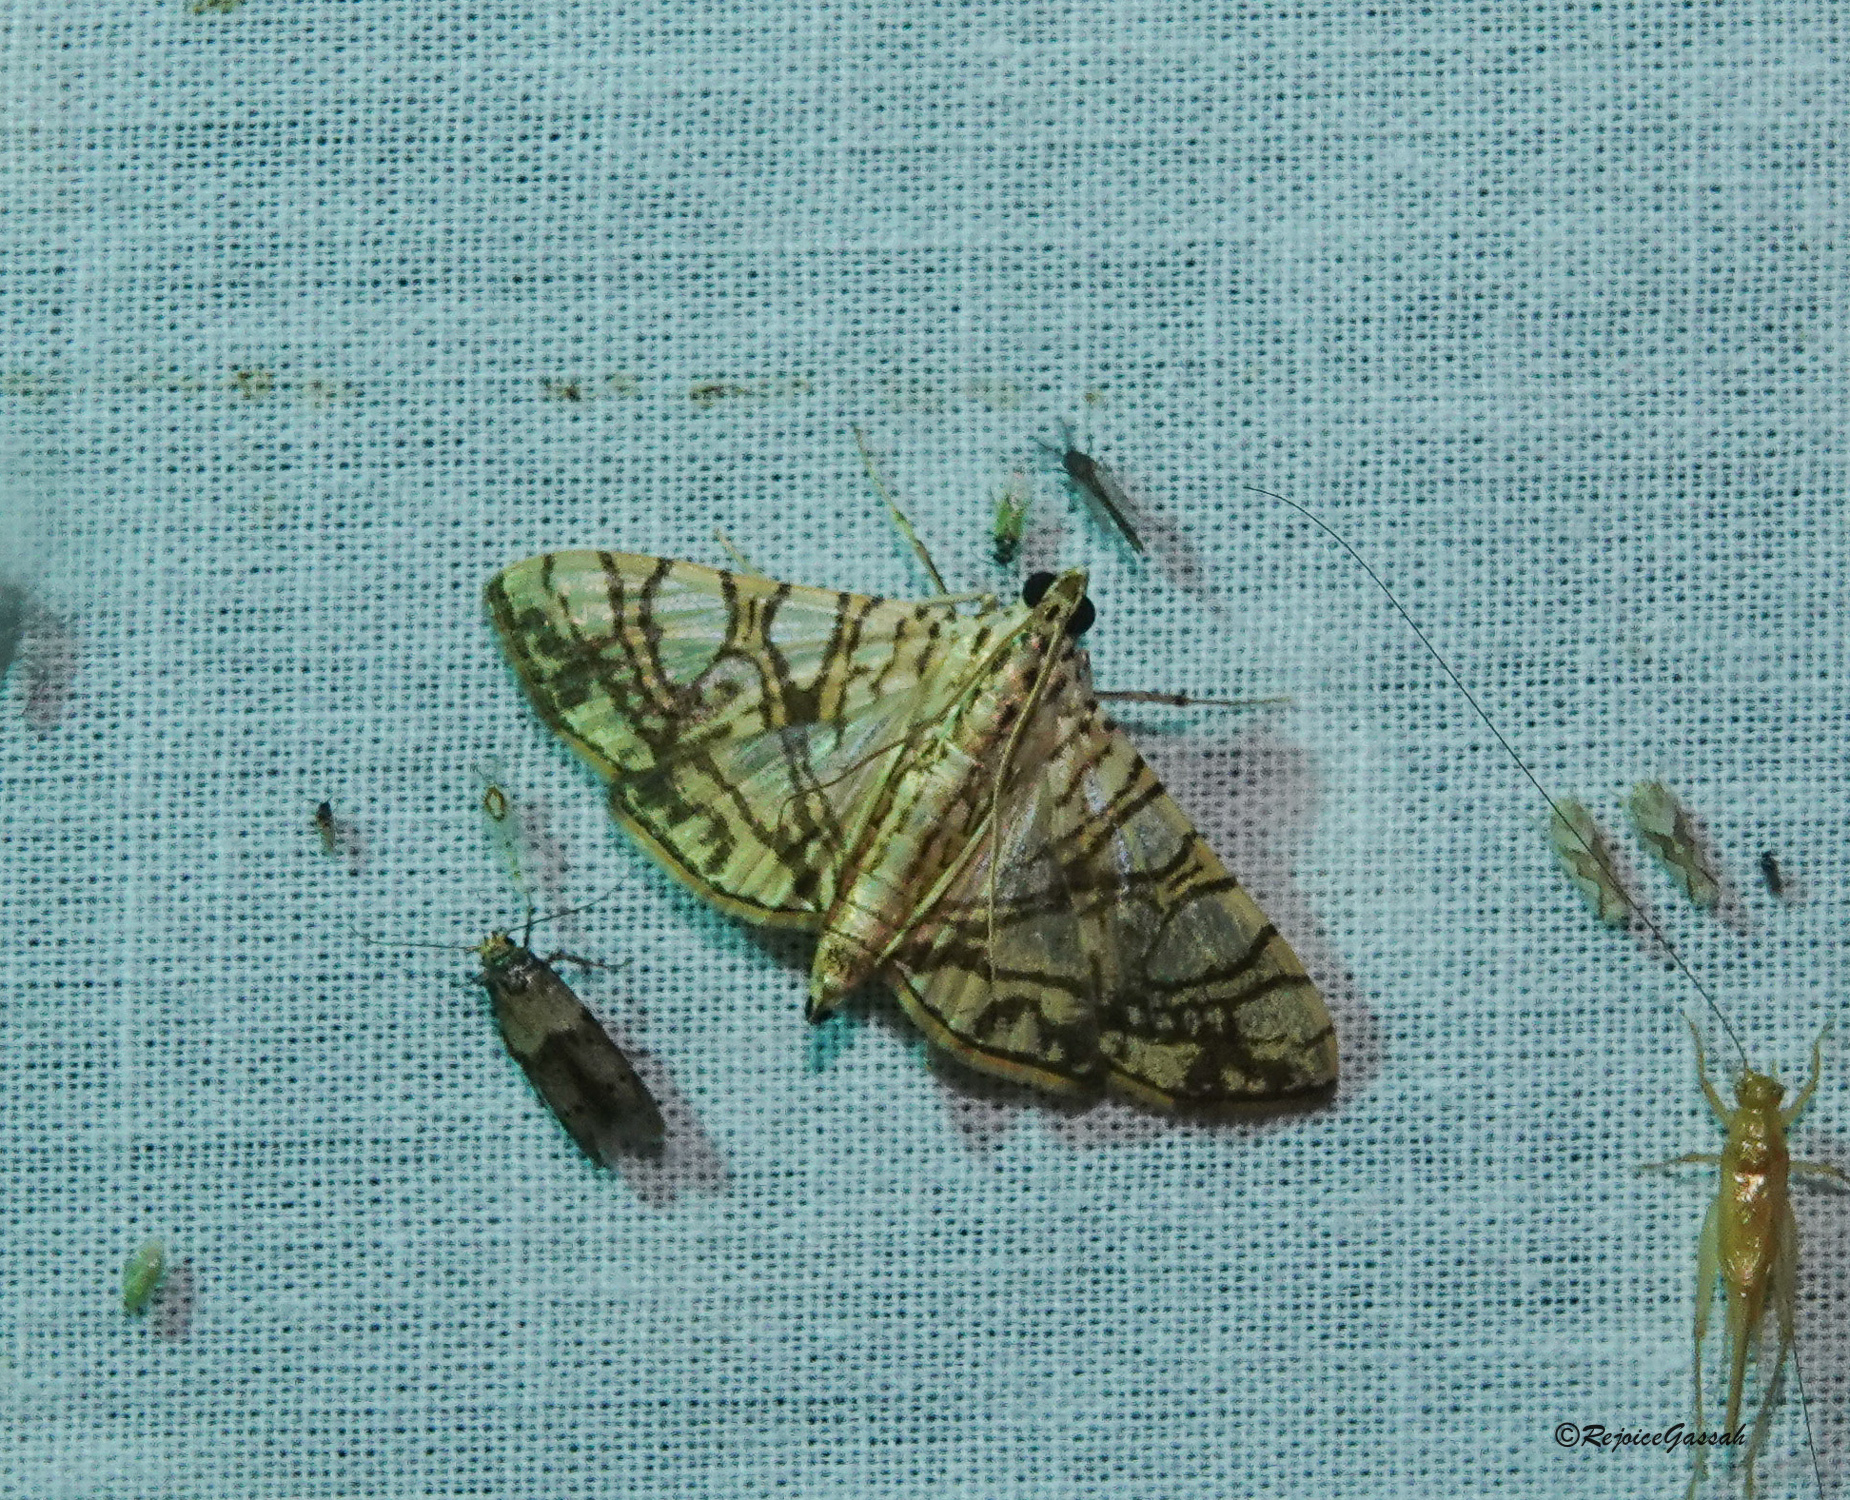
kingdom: Animalia
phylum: Arthropoda
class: Insecta
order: Lepidoptera
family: Crambidae
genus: Glyphodes
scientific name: Glyphodes caesalis
